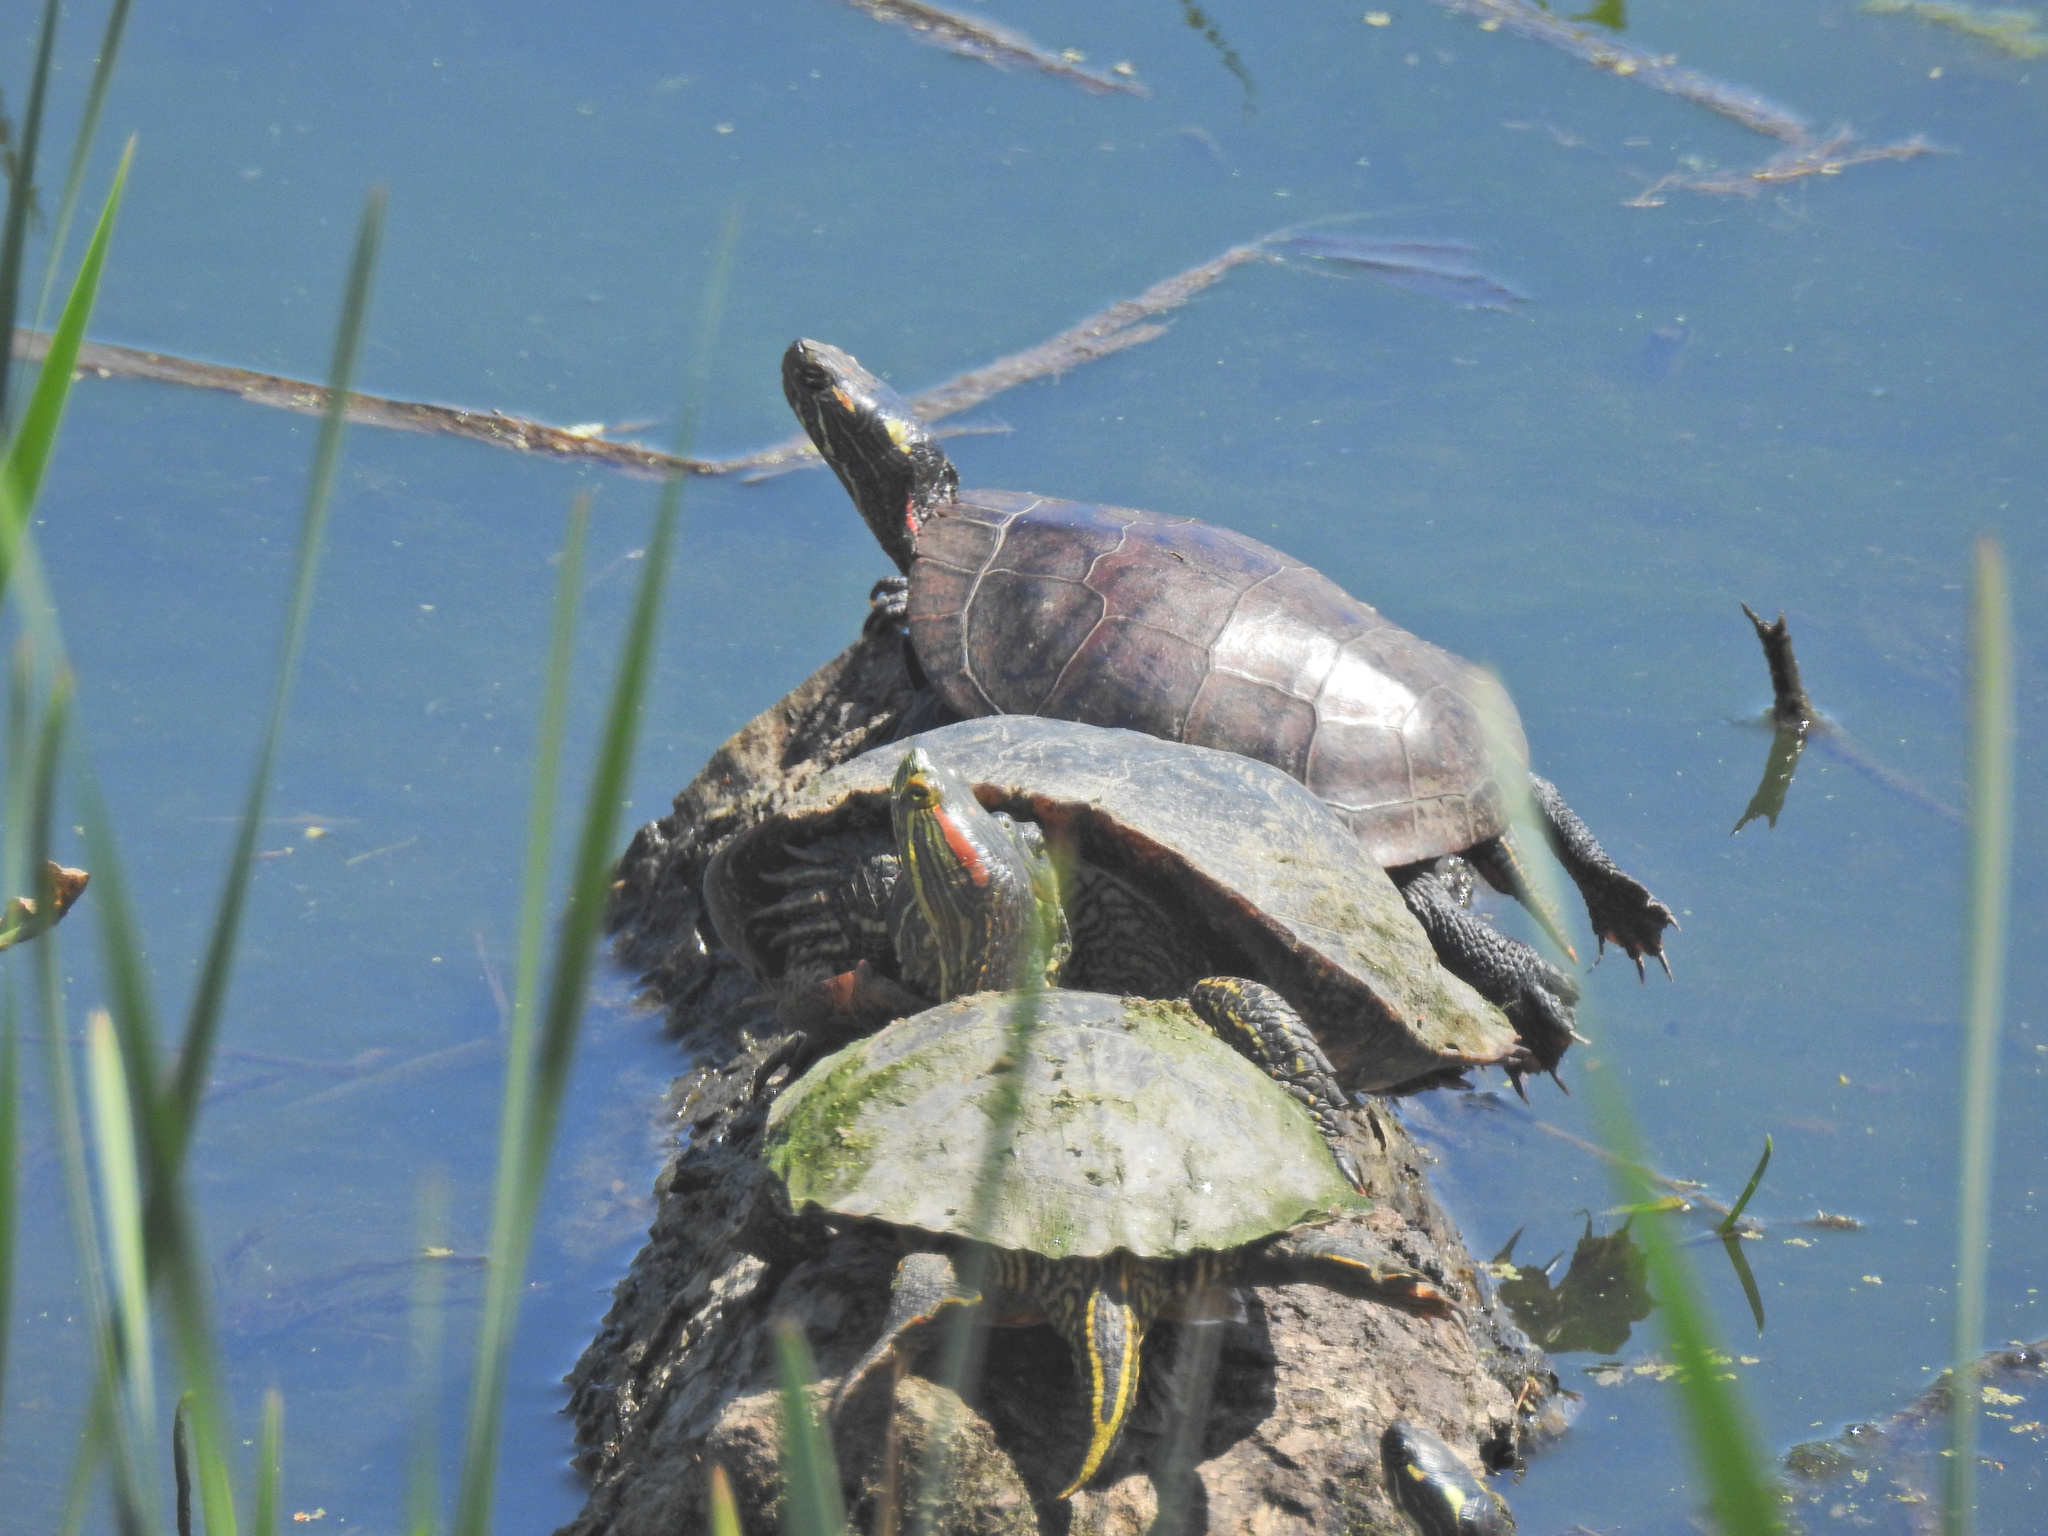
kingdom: Animalia
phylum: Chordata
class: Testudines
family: Emydidae
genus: Trachemys
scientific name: Trachemys scripta
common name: Slider
